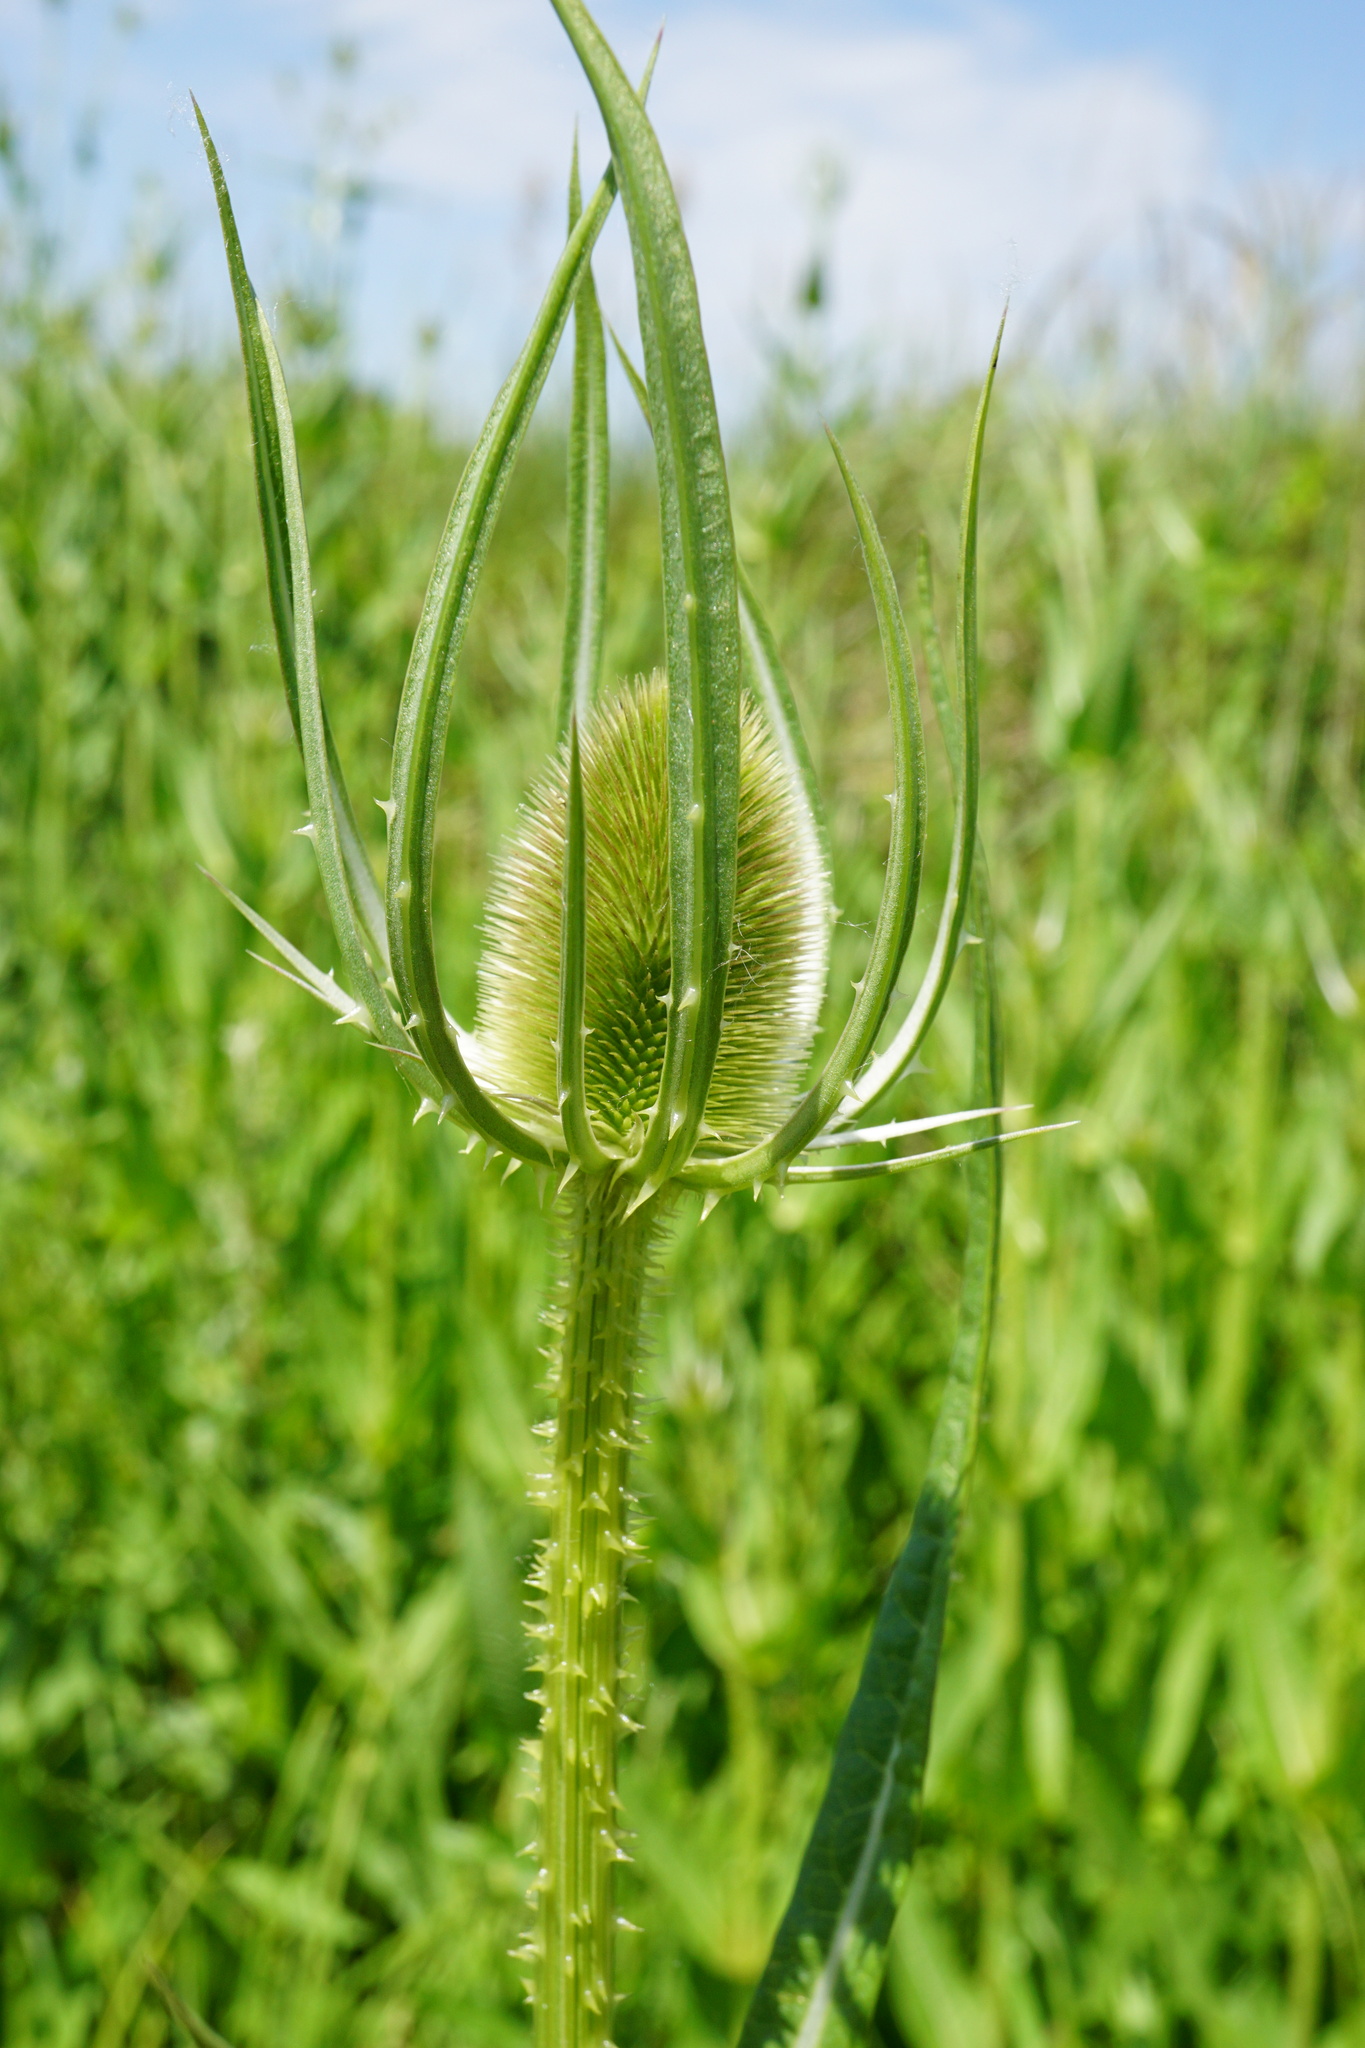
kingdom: Plantae
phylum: Tracheophyta
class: Magnoliopsida
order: Dipsacales
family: Caprifoliaceae
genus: Dipsacus
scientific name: Dipsacus fullonum
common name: Teasel
